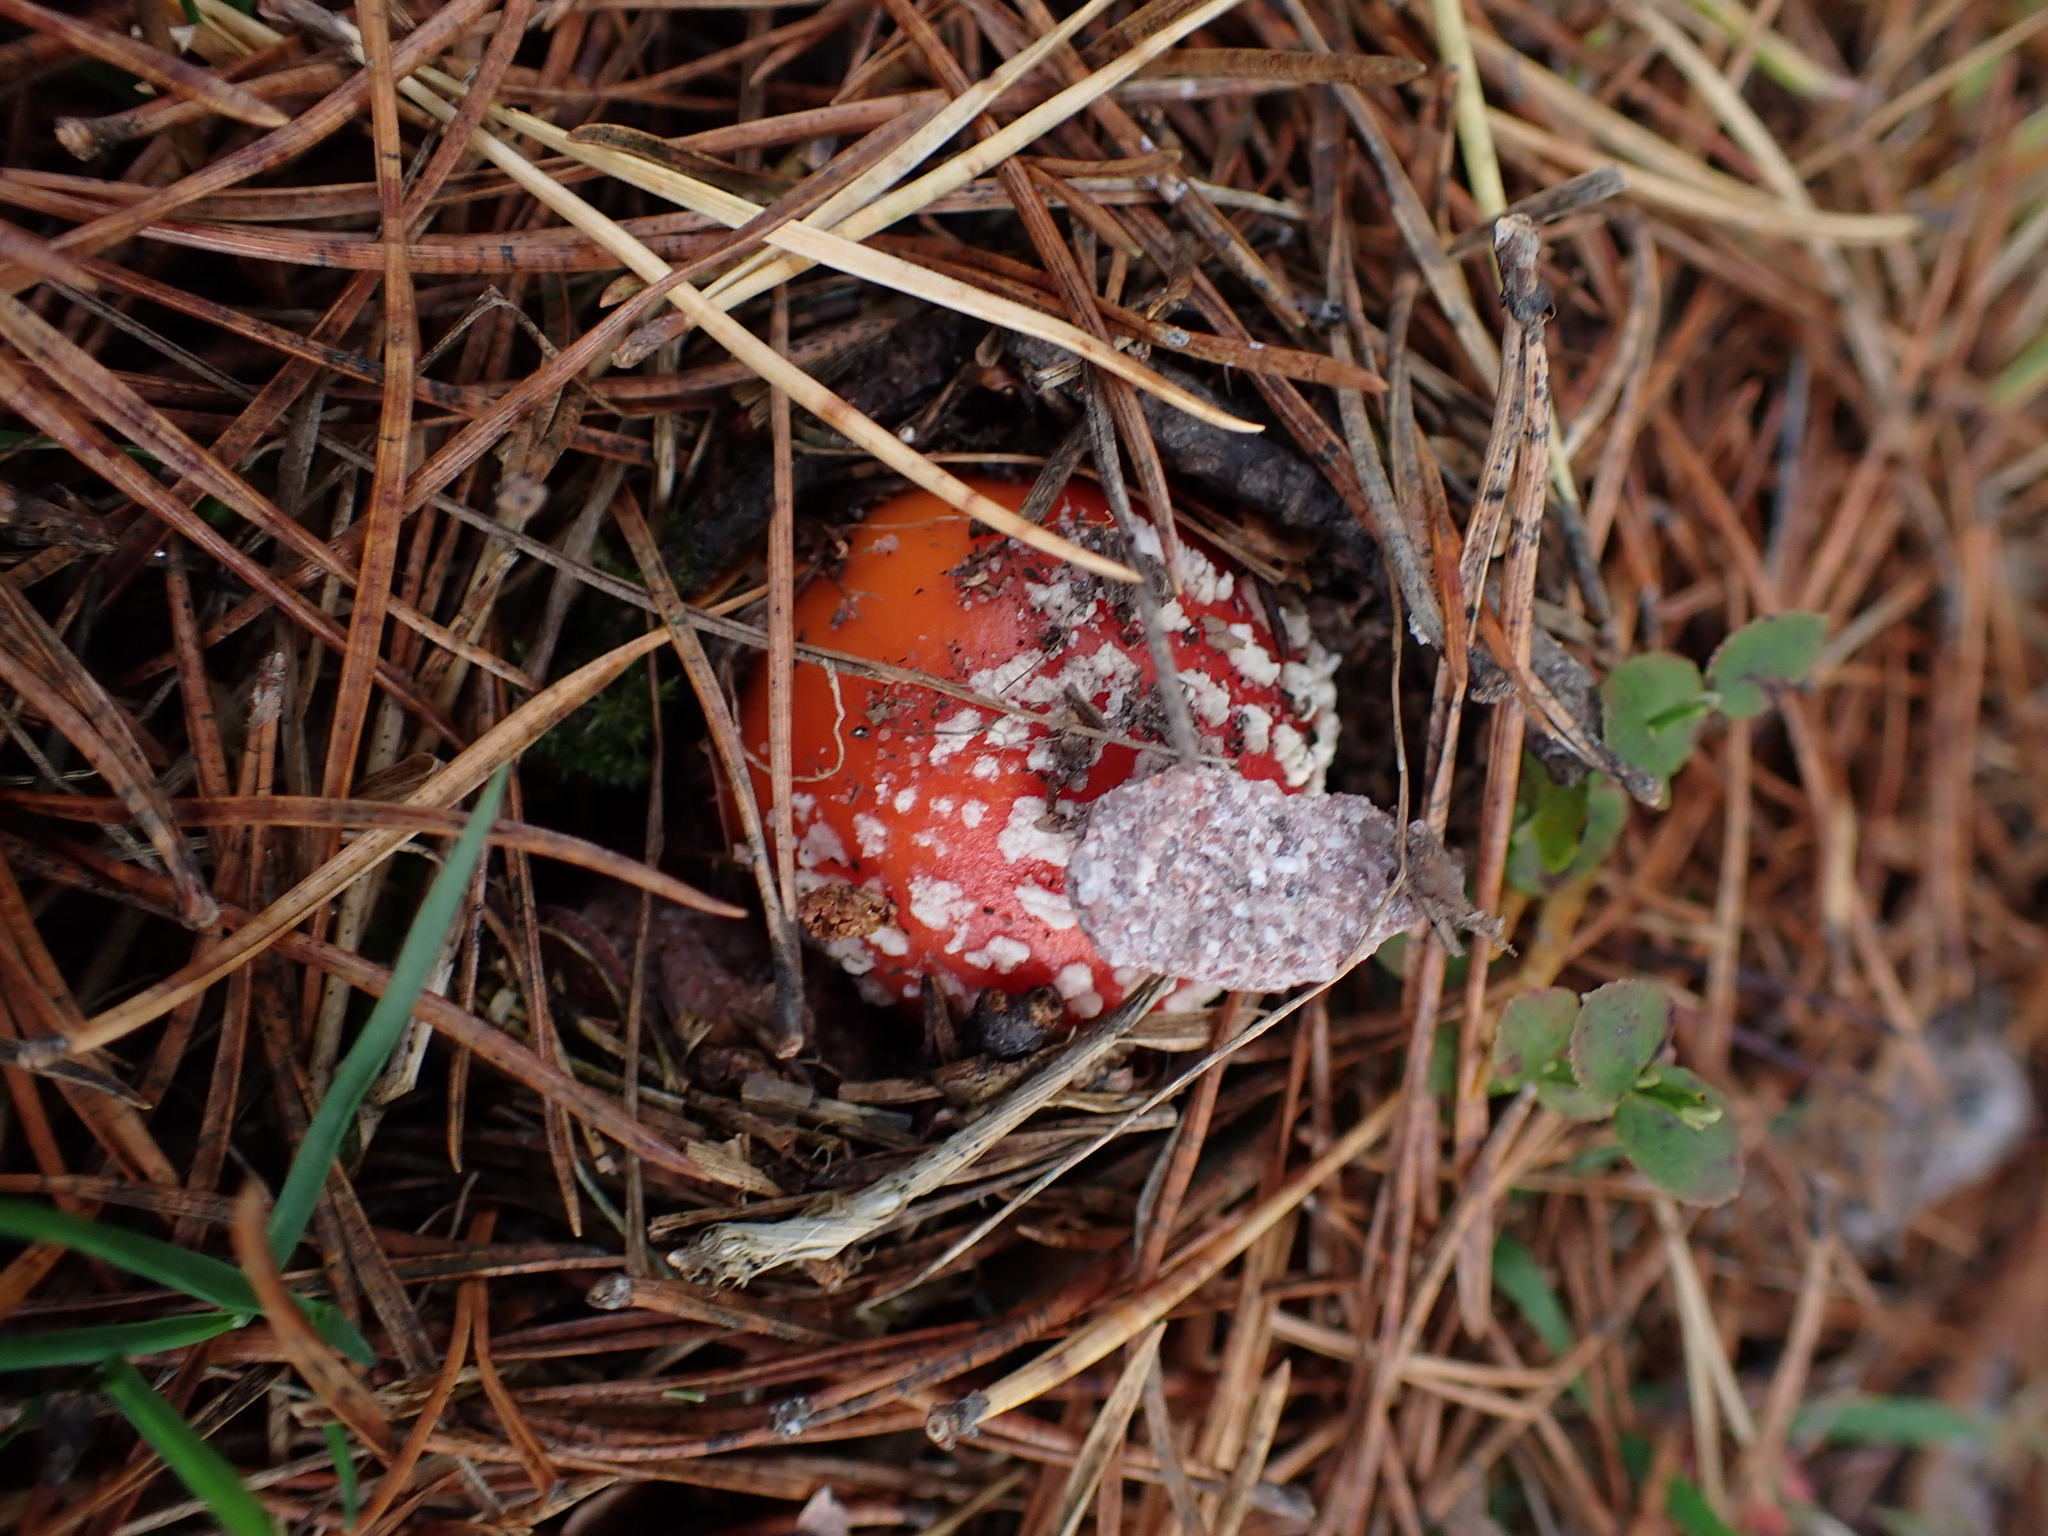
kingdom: Fungi
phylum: Basidiomycota
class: Agaricomycetes
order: Agaricales
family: Amanitaceae
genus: Amanita
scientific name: Amanita muscaria
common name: Fly agaric
